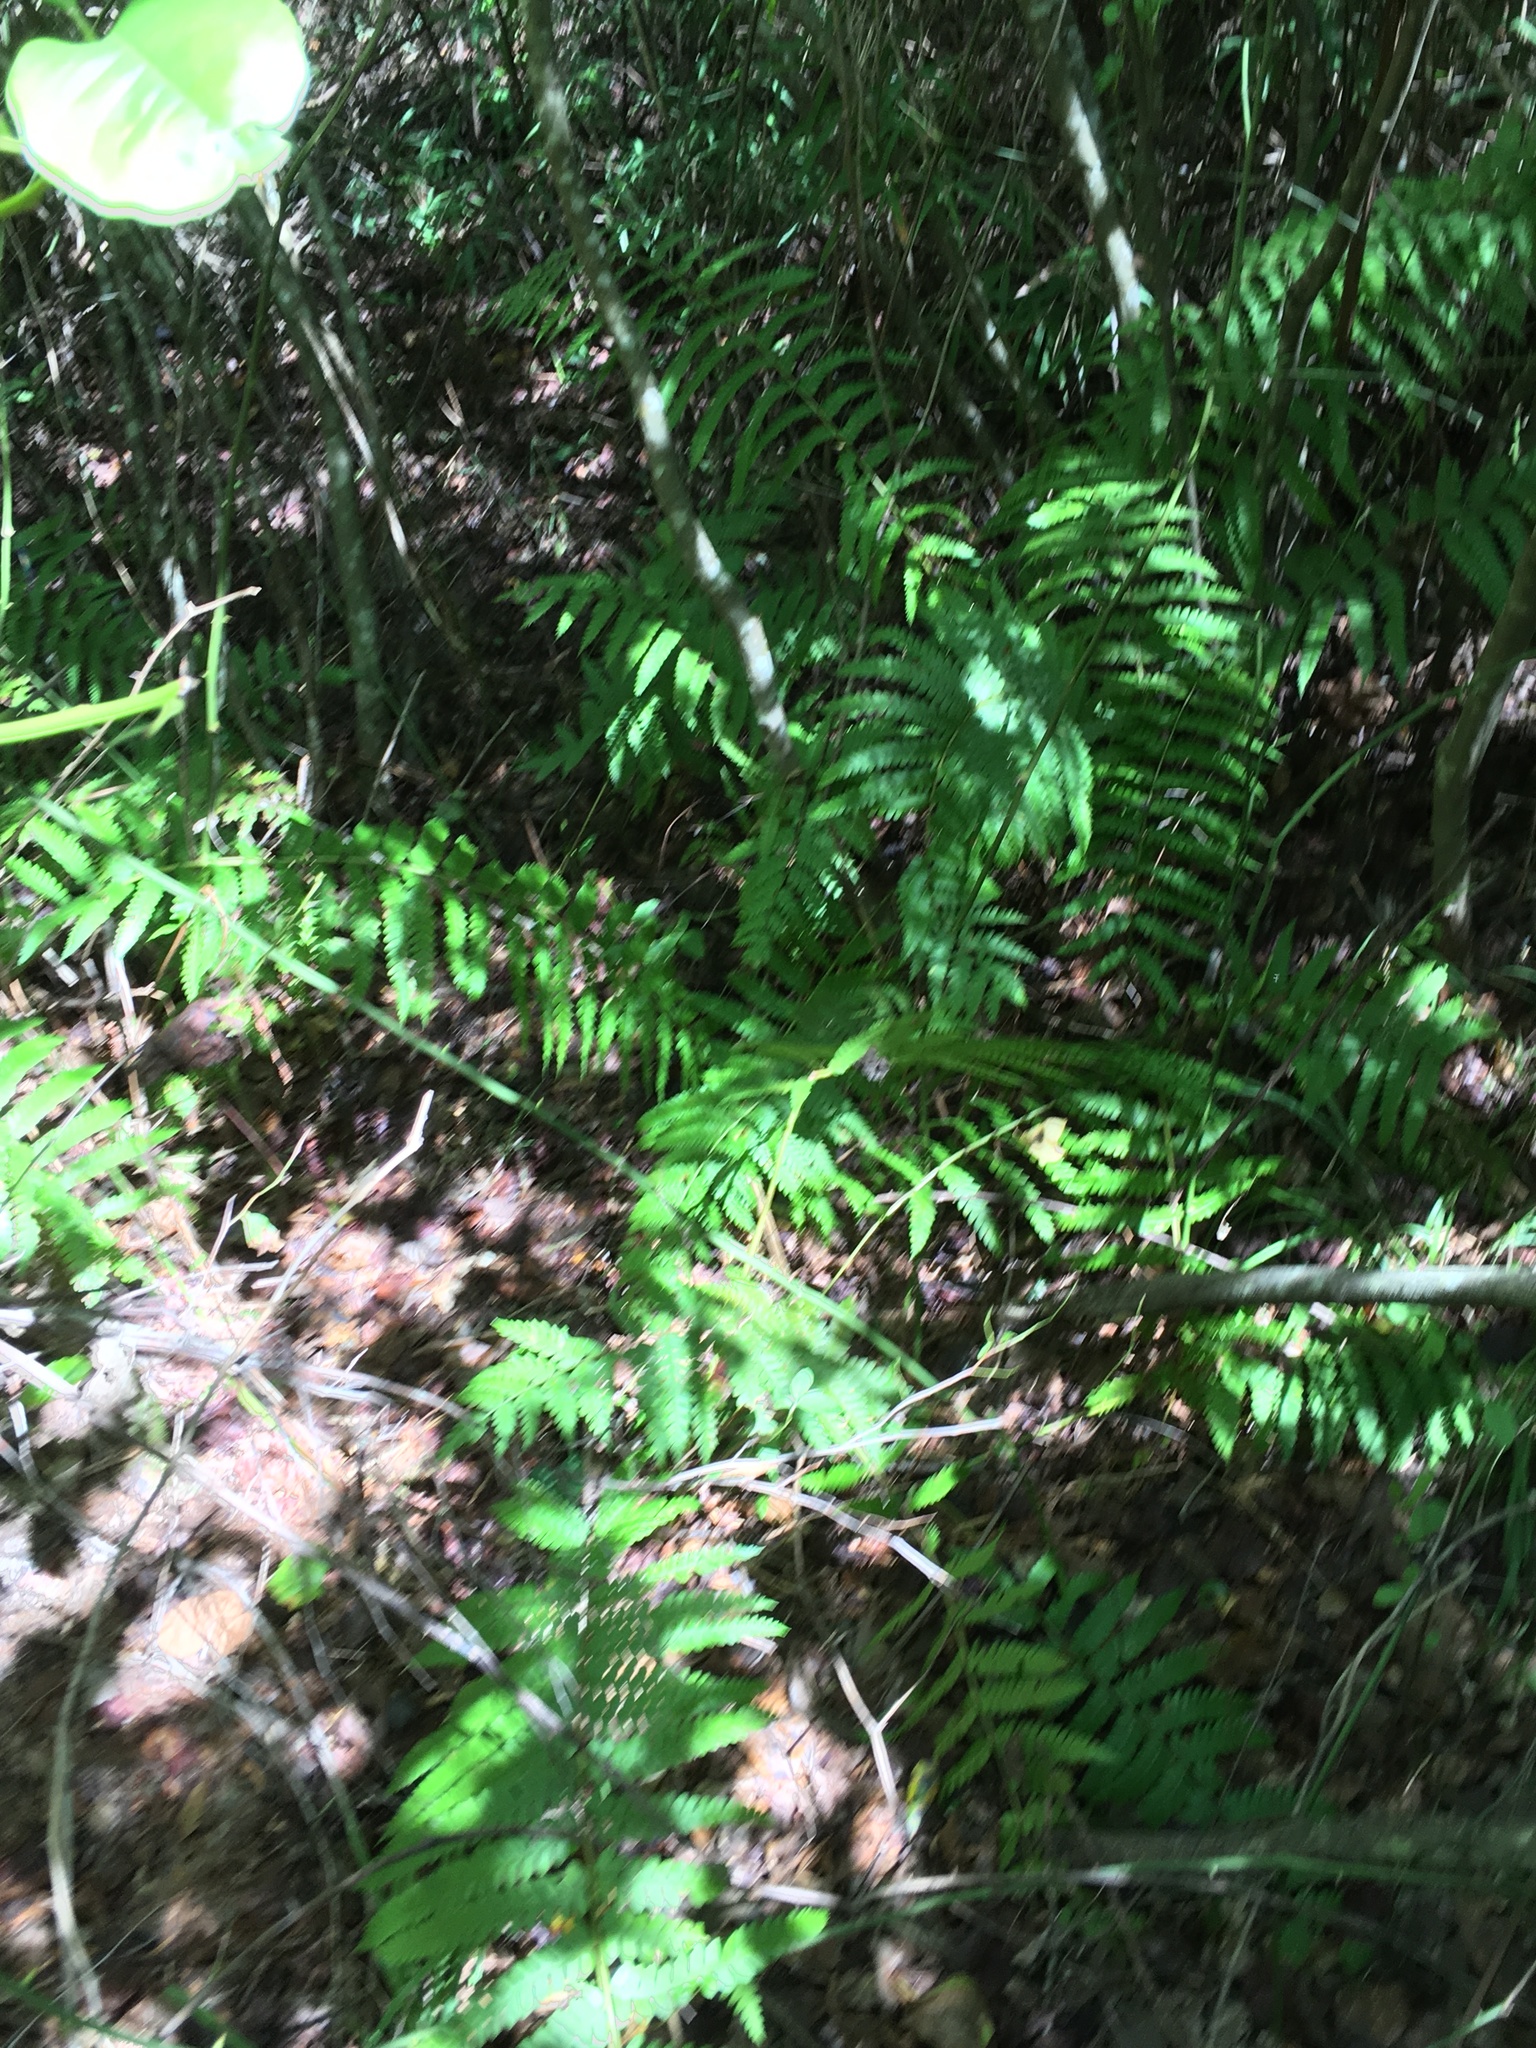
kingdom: Plantae
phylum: Tracheophyta
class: Polypodiopsida
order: Osmundales
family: Osmundaceae
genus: Osmundastrum
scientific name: Osmundastrum cinnamomeum
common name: Cinnamon fern
